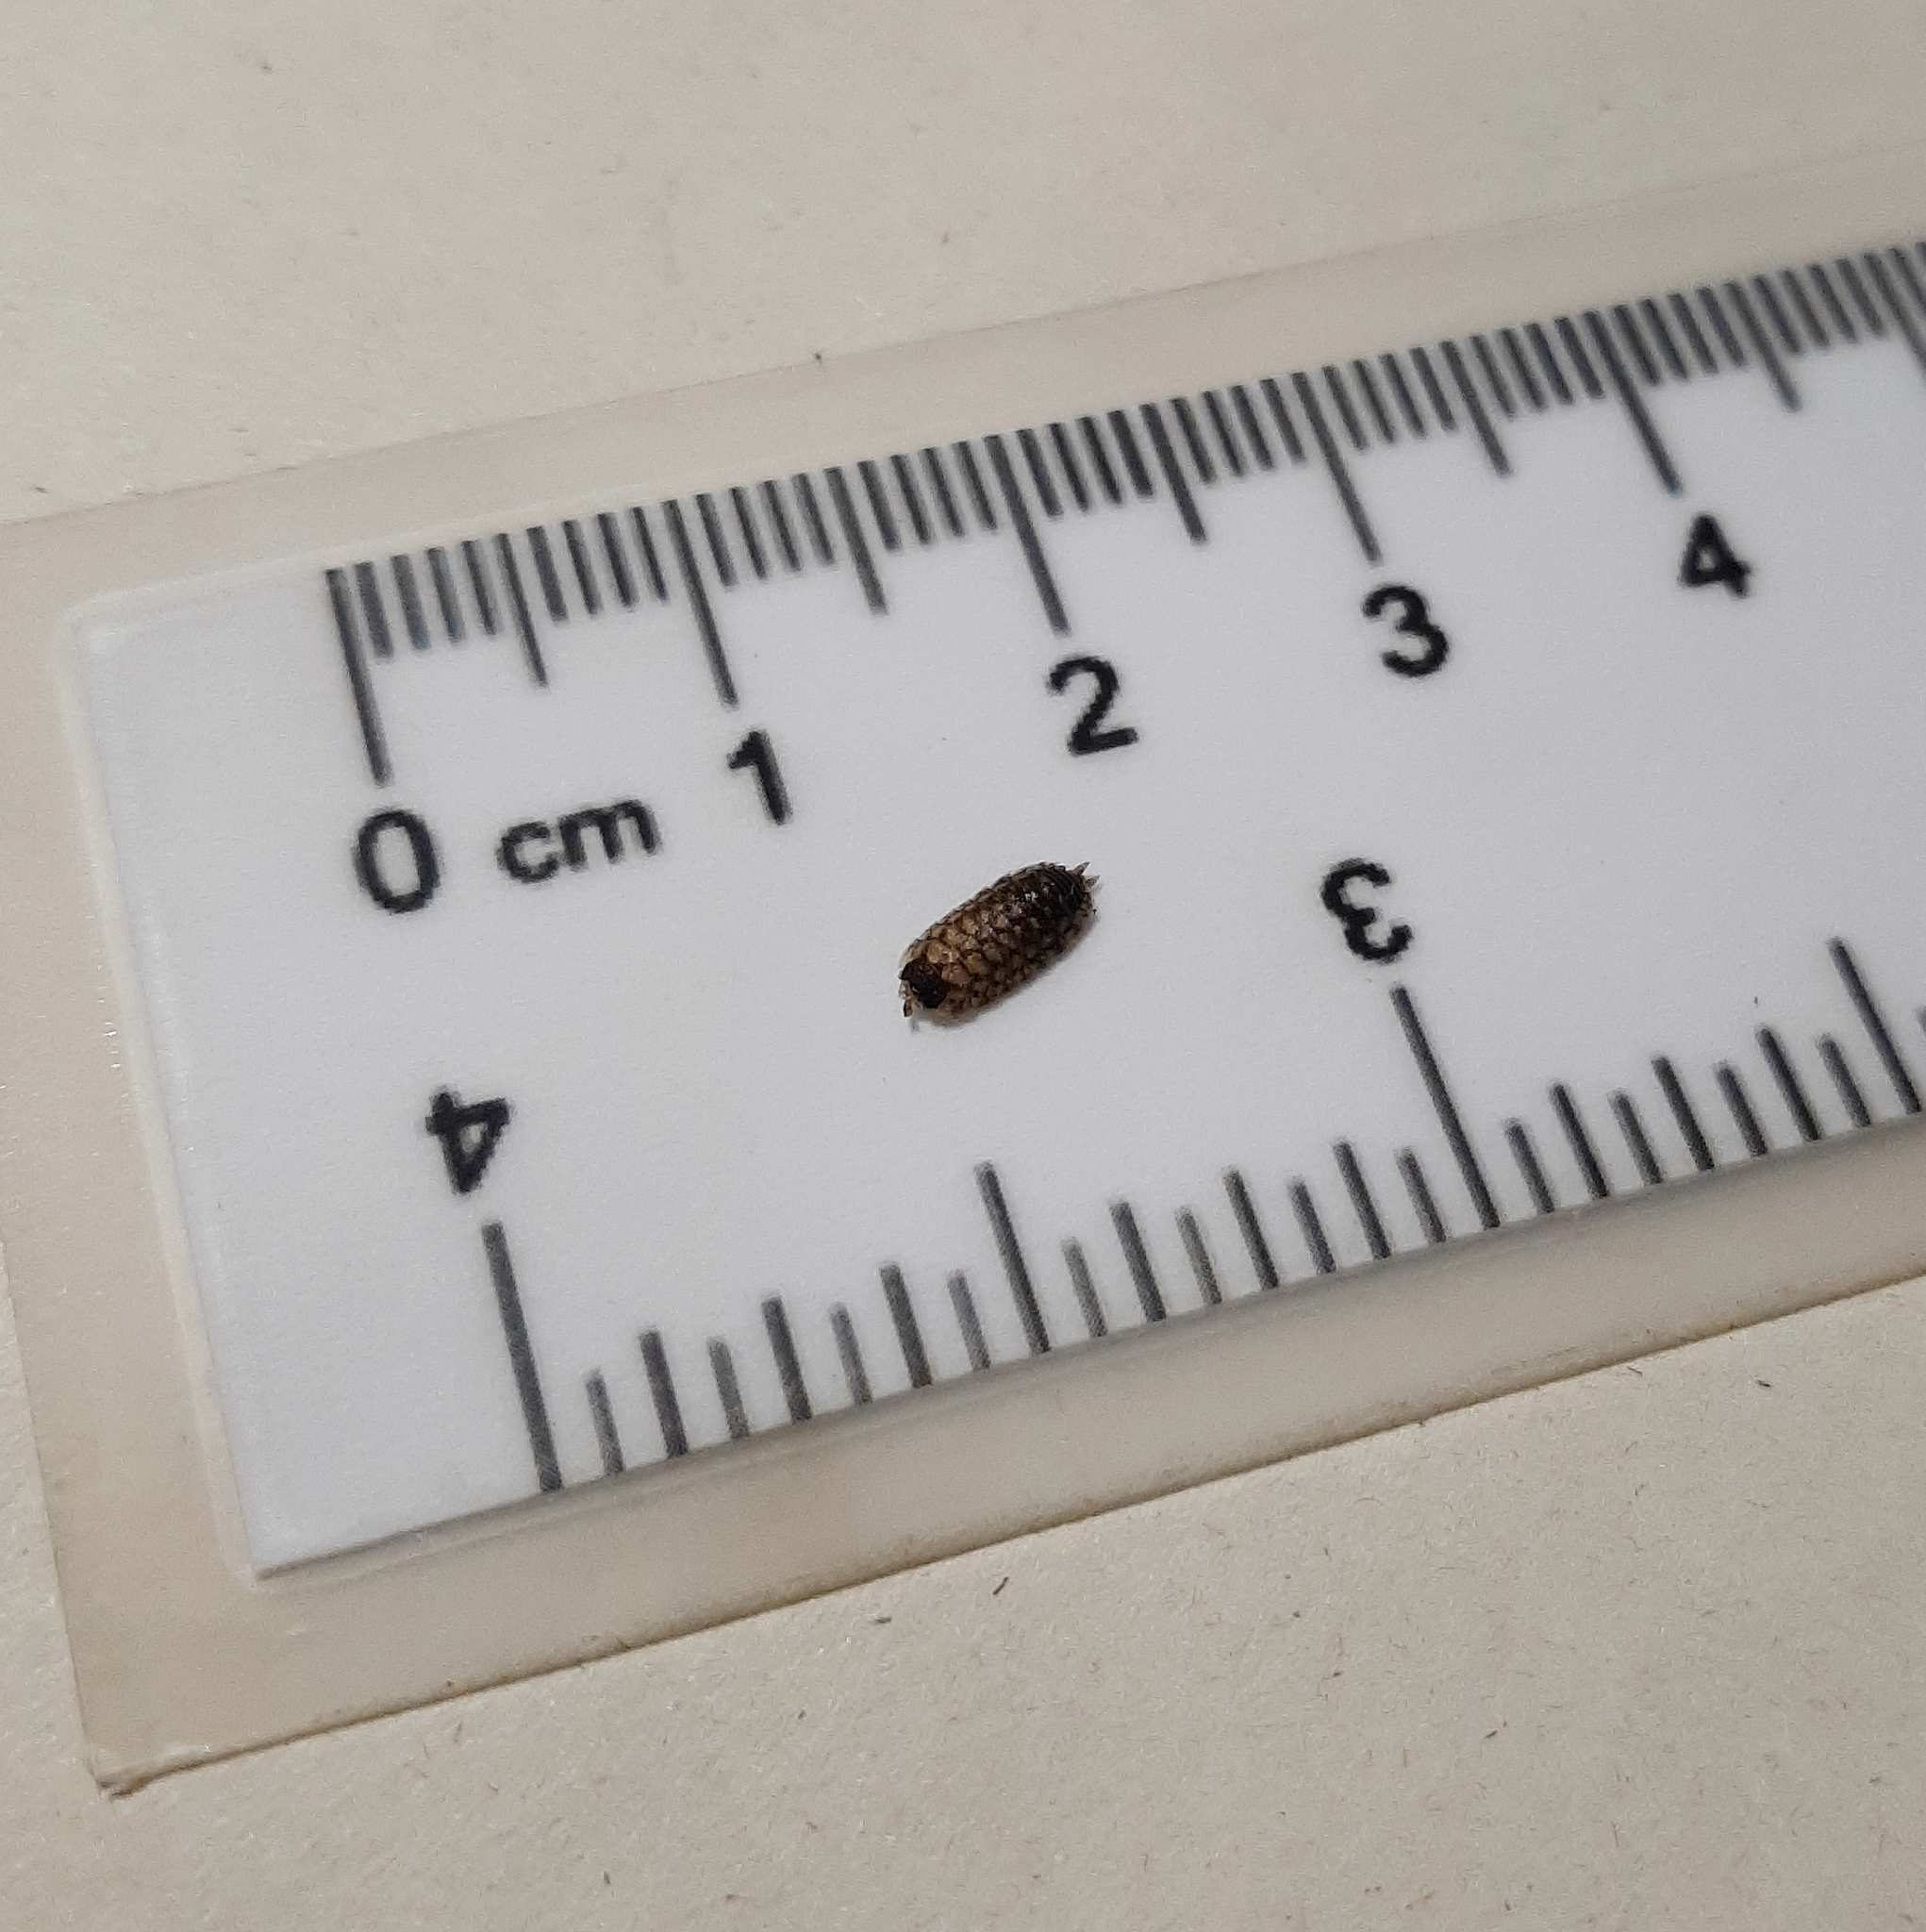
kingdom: Animalia
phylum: Arthropoda
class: Malacostraca
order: Isopoda
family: Porcellionidae
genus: Porcellio
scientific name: Porcellio spinicornis
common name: Painted woodlouse
